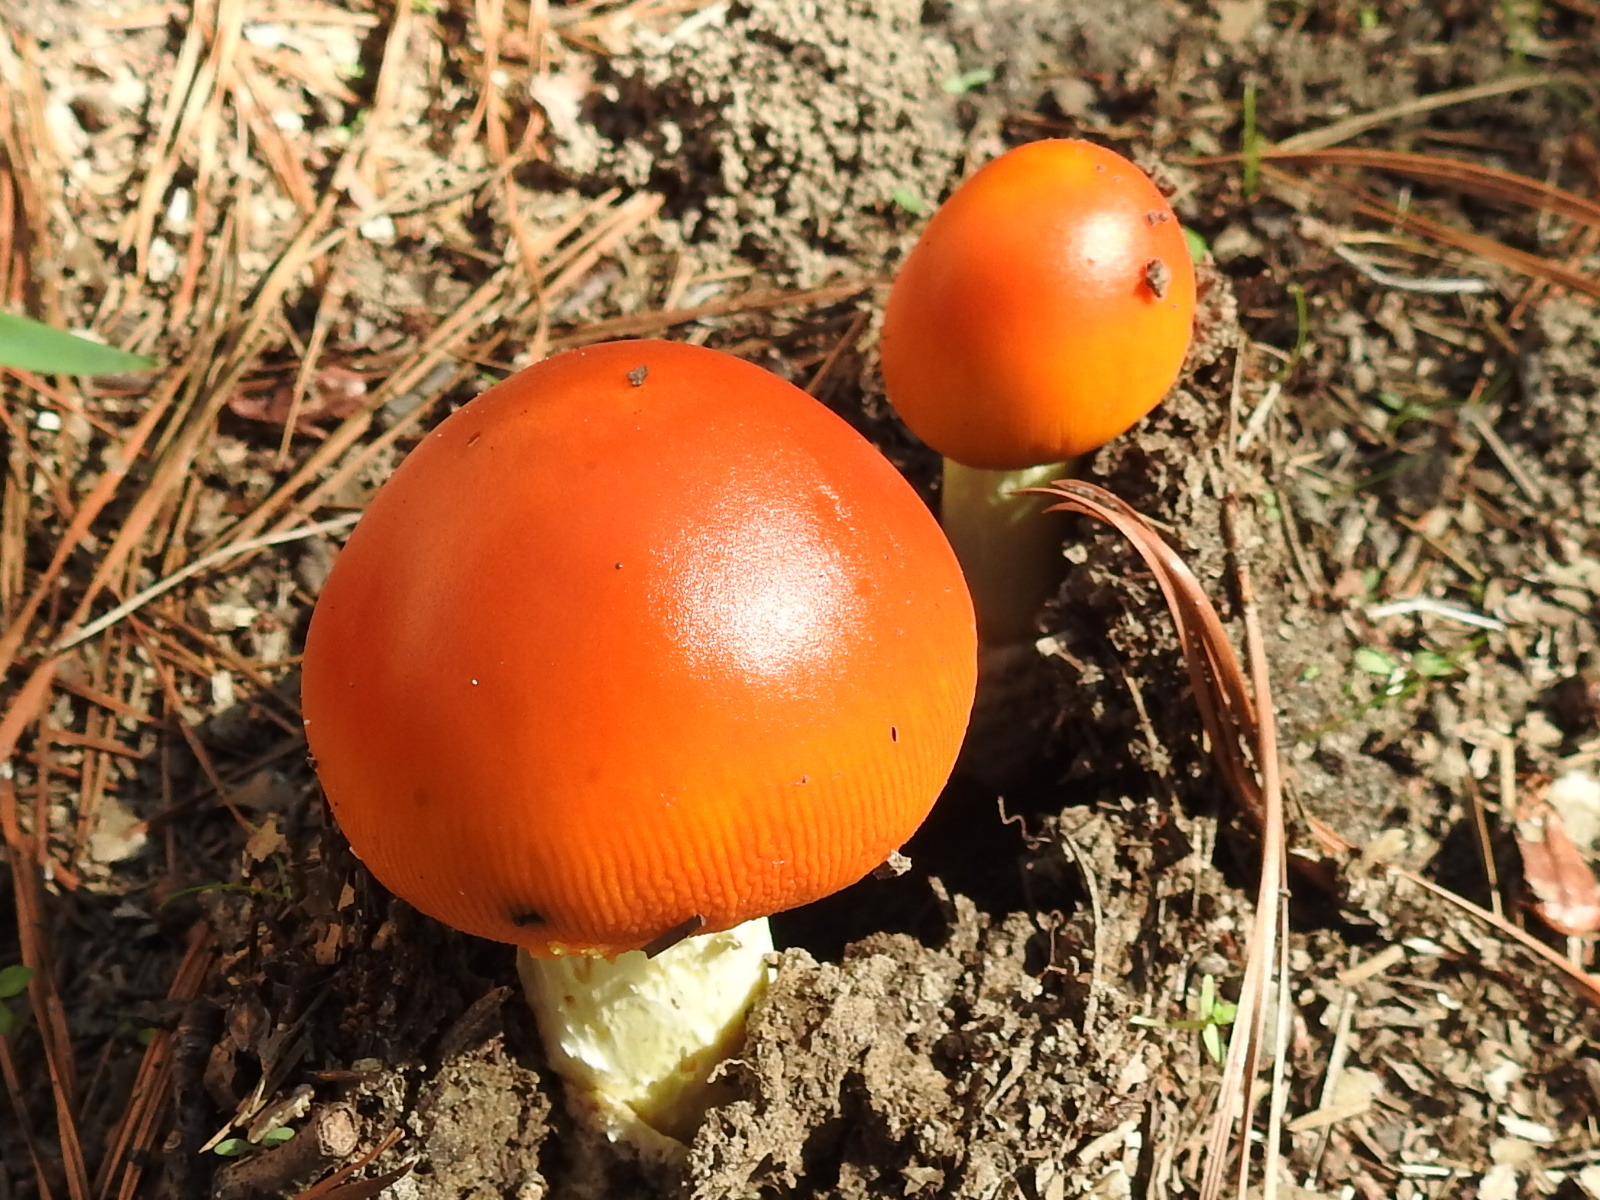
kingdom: Fungi
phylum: Basidiomycota
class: Agaricomycetes
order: Agaricales
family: Amanitaceae
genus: Amanita
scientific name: Amanita jacksonii
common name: Jackson's slender caesar
